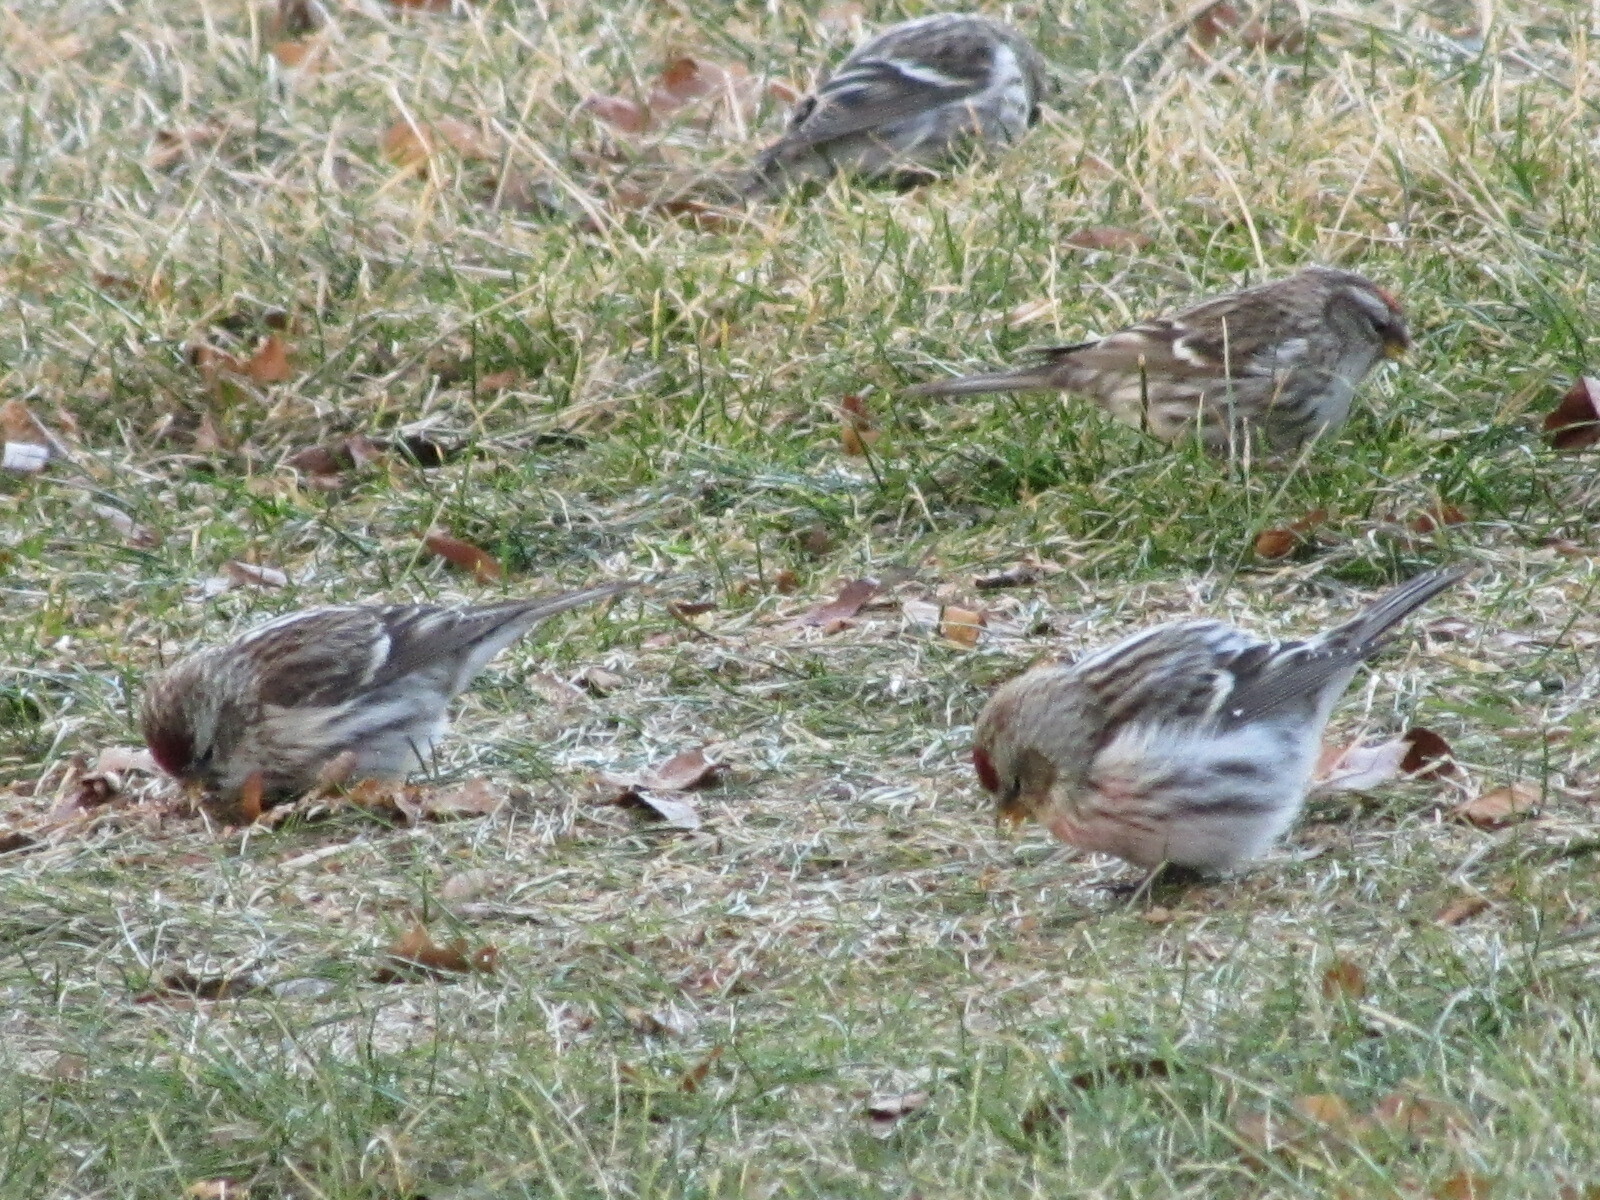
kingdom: Animalia
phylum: Chordata
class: Aves
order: Passeriformes
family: Fringillidae
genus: Acanthis
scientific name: Acanthis flammea
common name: Common redpoll
